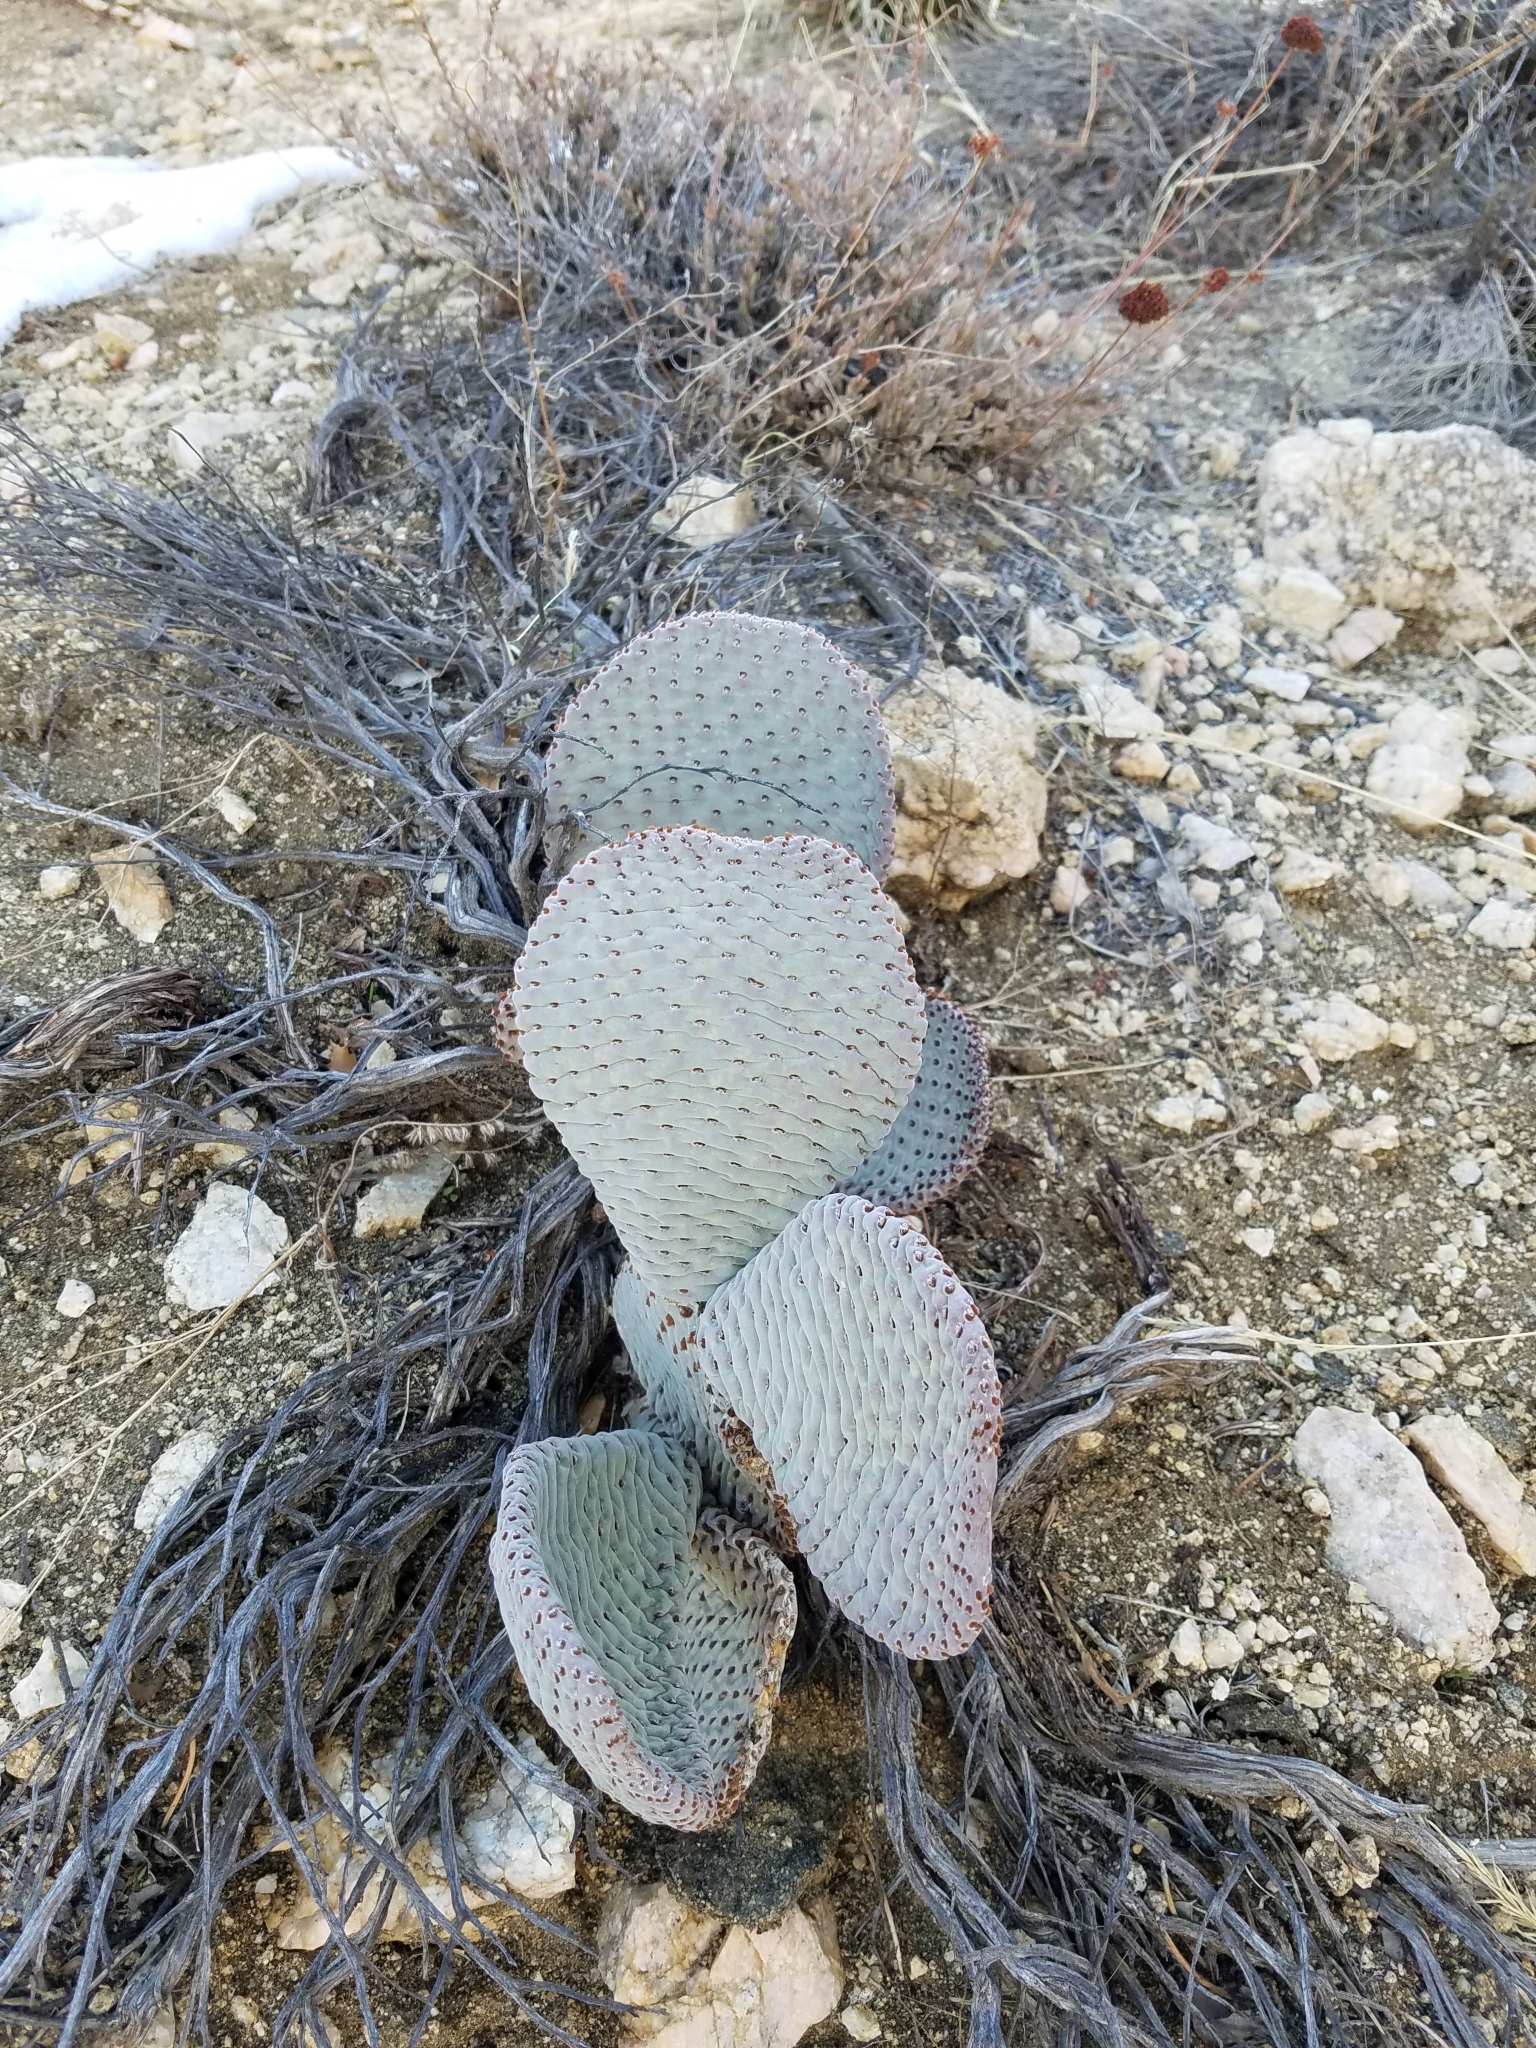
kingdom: Plantae
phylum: Tracheophyta
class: Magnoliopsida
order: Caryophyllales
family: Cactaceae
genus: Opuntia
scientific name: Opuntia basilaris
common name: Beavertail prickly-pear
